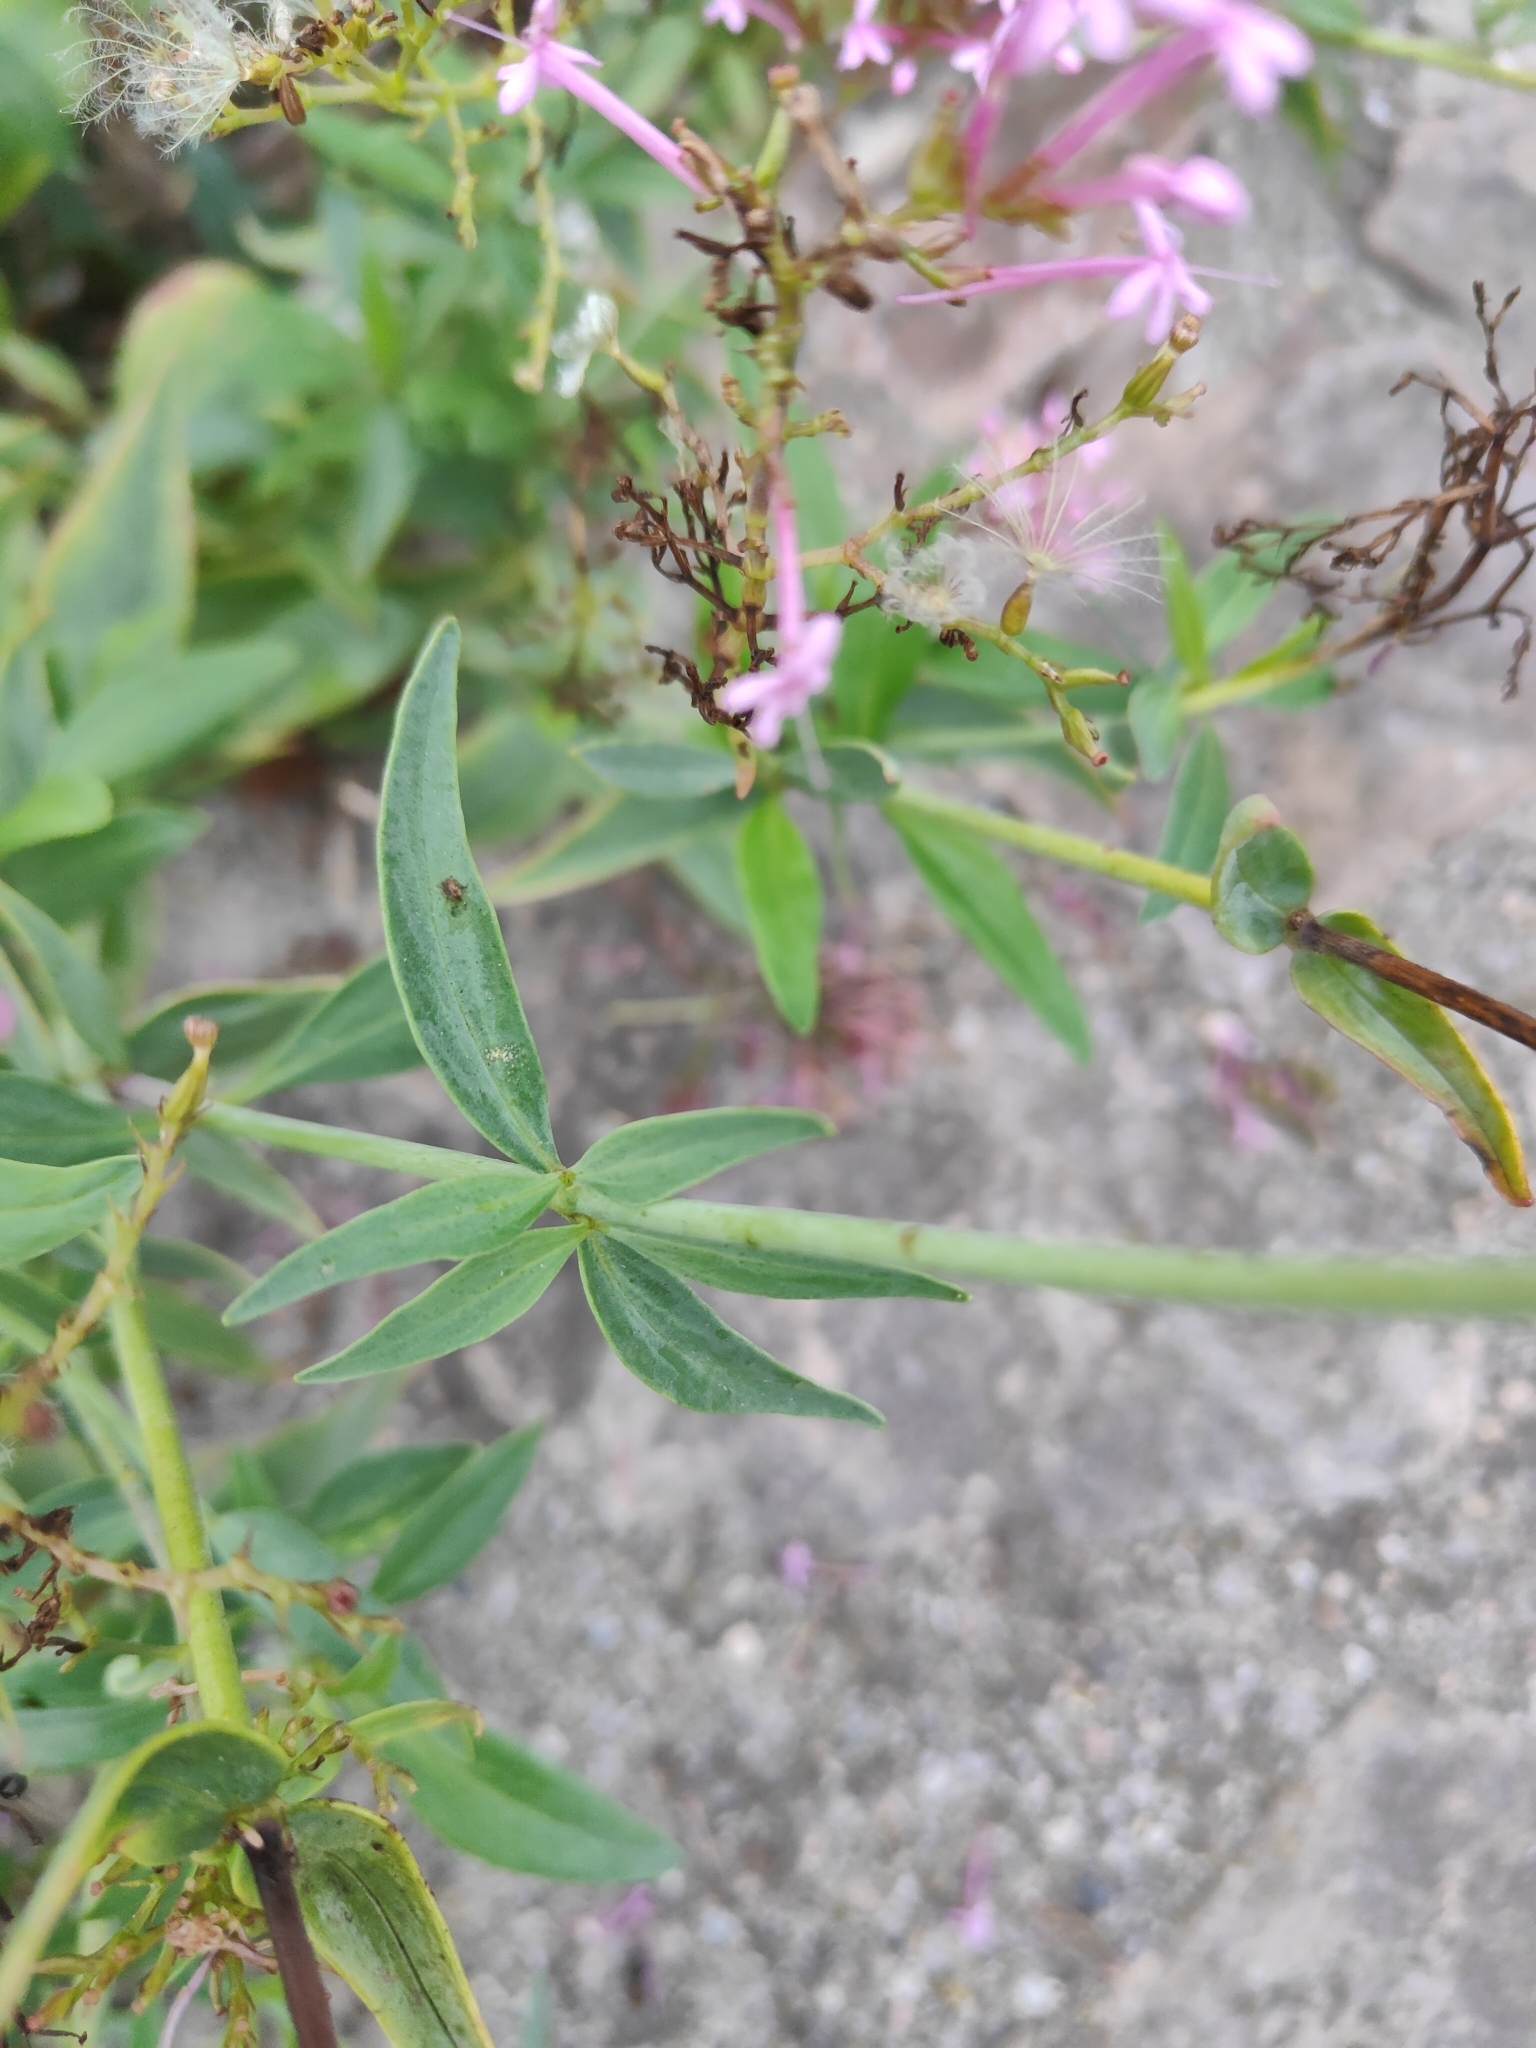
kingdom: Plantae
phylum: Tracheophyta
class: Magnoliopsida
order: Dipsacales
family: Caprifoliaceae
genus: Centranthus
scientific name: Centranthus ruber
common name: Red valerian
